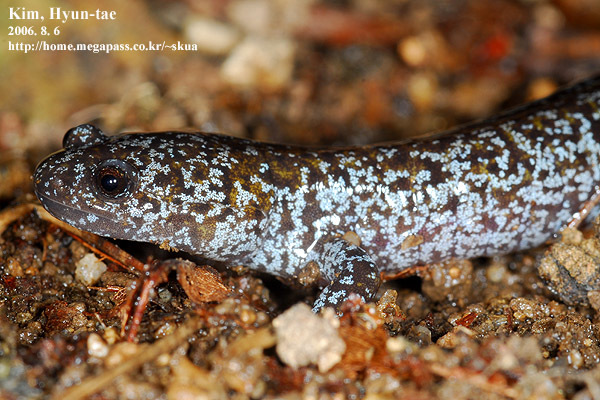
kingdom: Animalia
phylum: Chordata
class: Amphibia
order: Caudata
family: Hynobiidae
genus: Hynobius
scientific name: Hynobius leechii
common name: Gensan salamander
